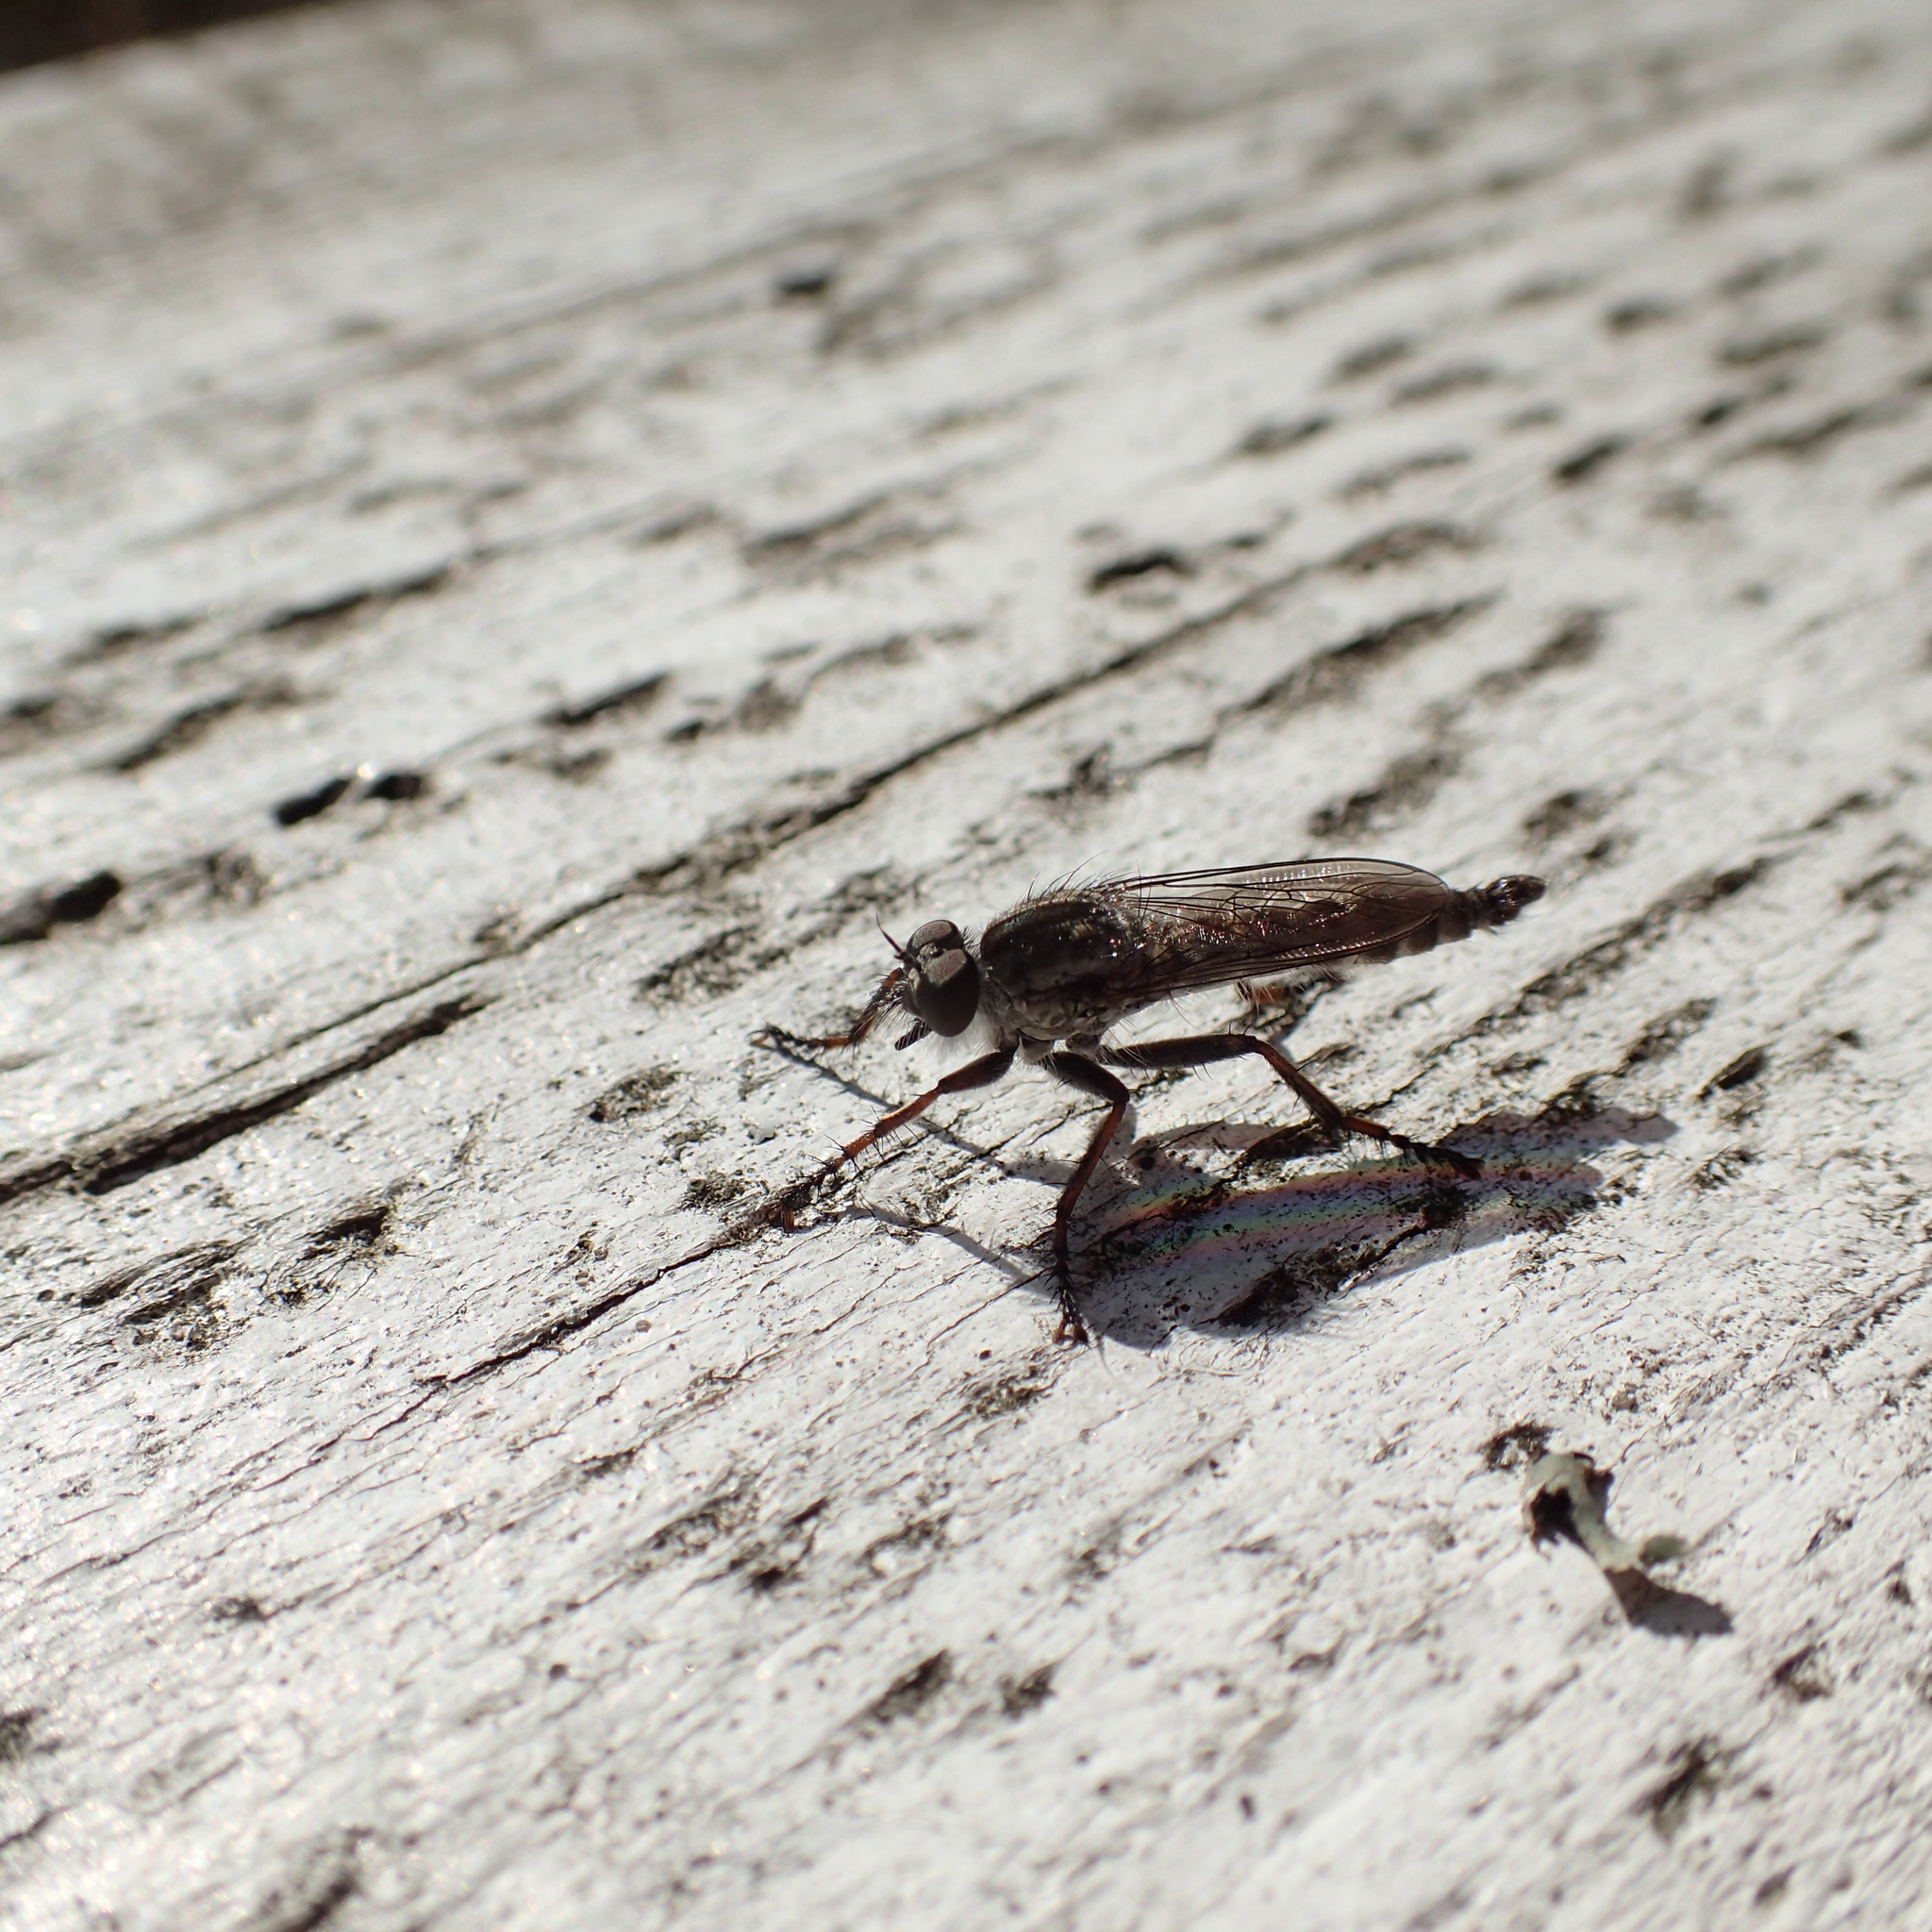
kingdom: Animalia
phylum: Arthropoda
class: Insecta
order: Diptera
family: Asilidae
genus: Machimus
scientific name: Machimus atricapillus
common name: Kite-tailed robberfly
